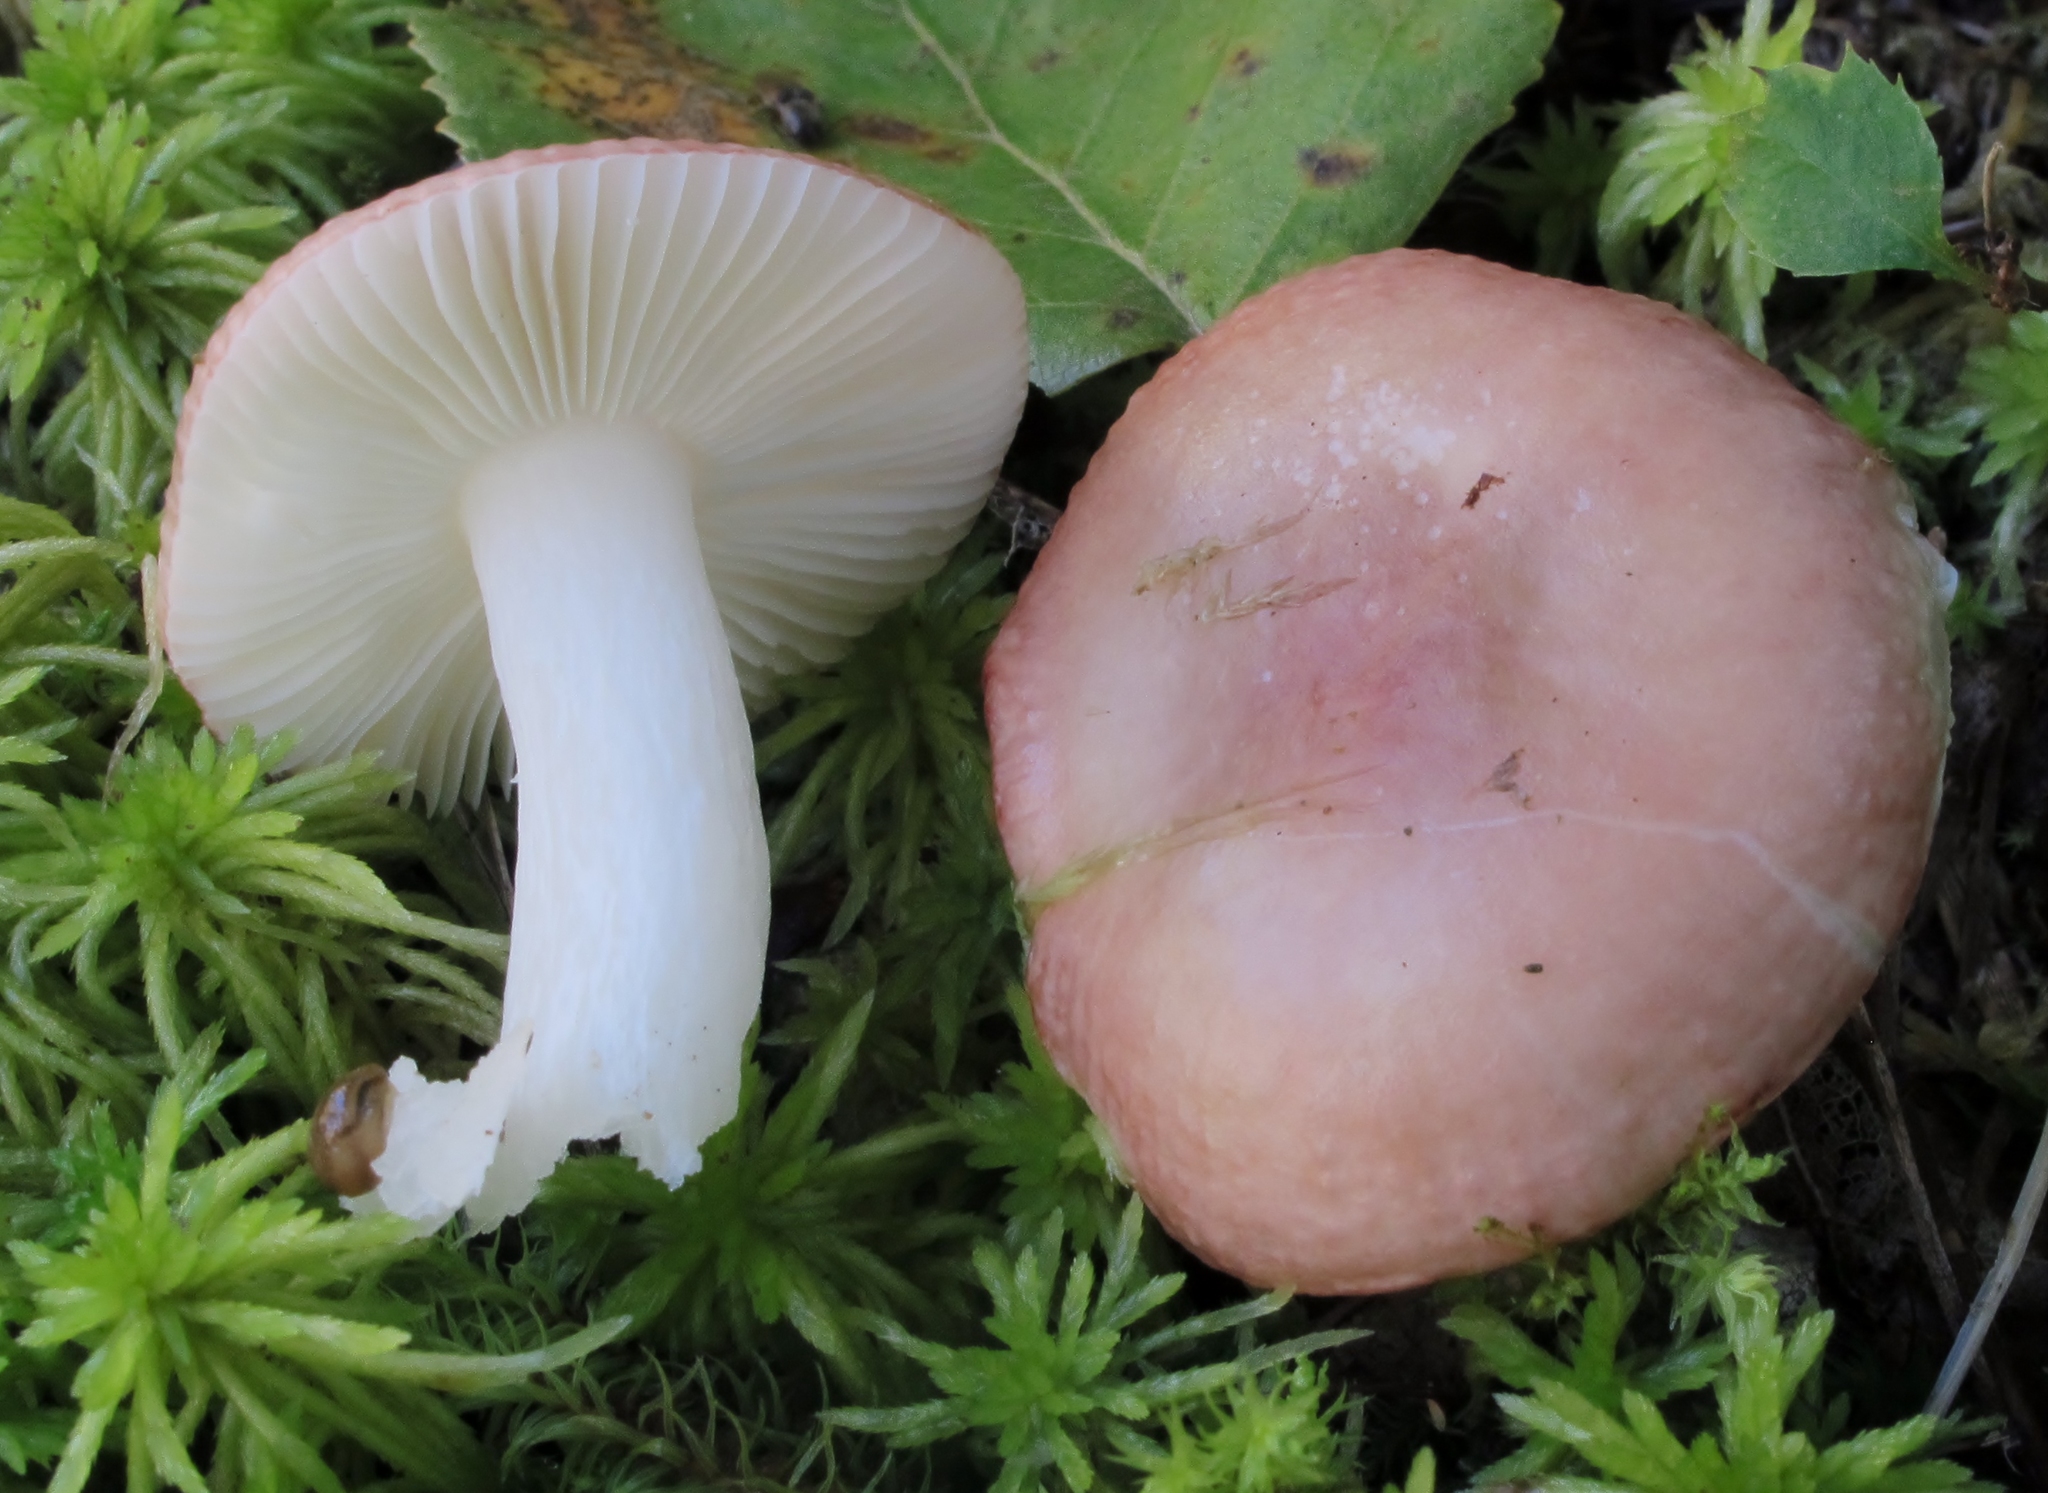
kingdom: Fungi
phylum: Basidiomycota
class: Agaricomycetes
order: Russulales
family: Russulaceae
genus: Russula
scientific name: Russula fragilis
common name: Fragile brittlegill
